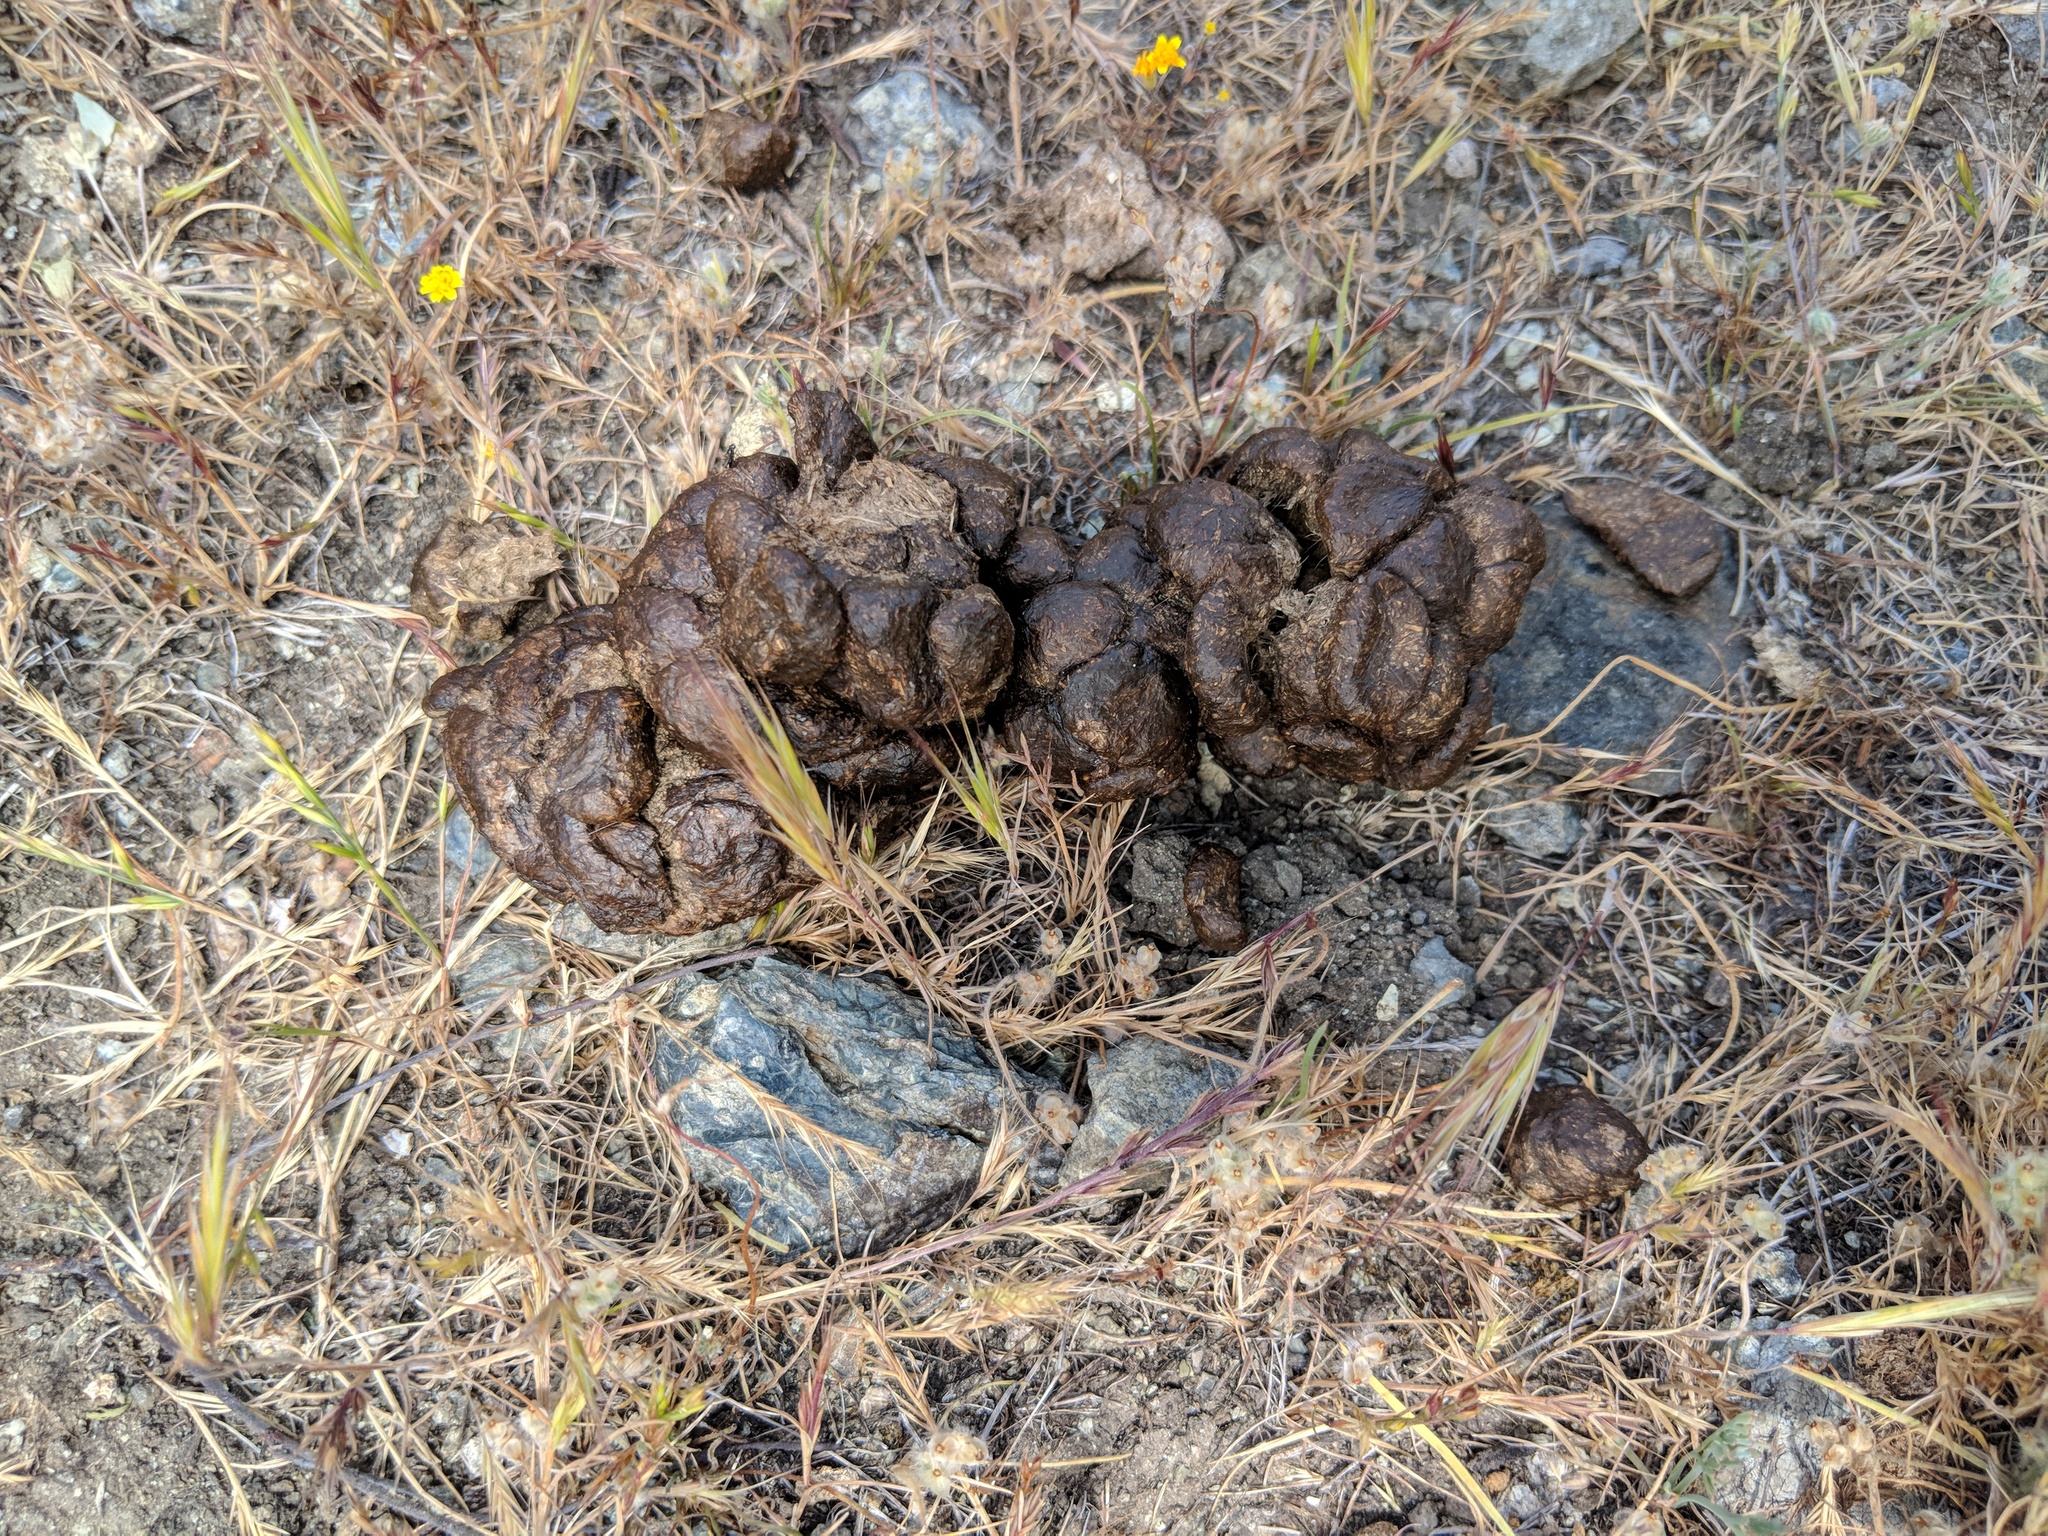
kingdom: Animalia
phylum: Chordata
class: Mammalia
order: Artiodactyla
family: Cervidae
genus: Odocoileus
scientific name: Odocoileus hemionus
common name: Mule deer
